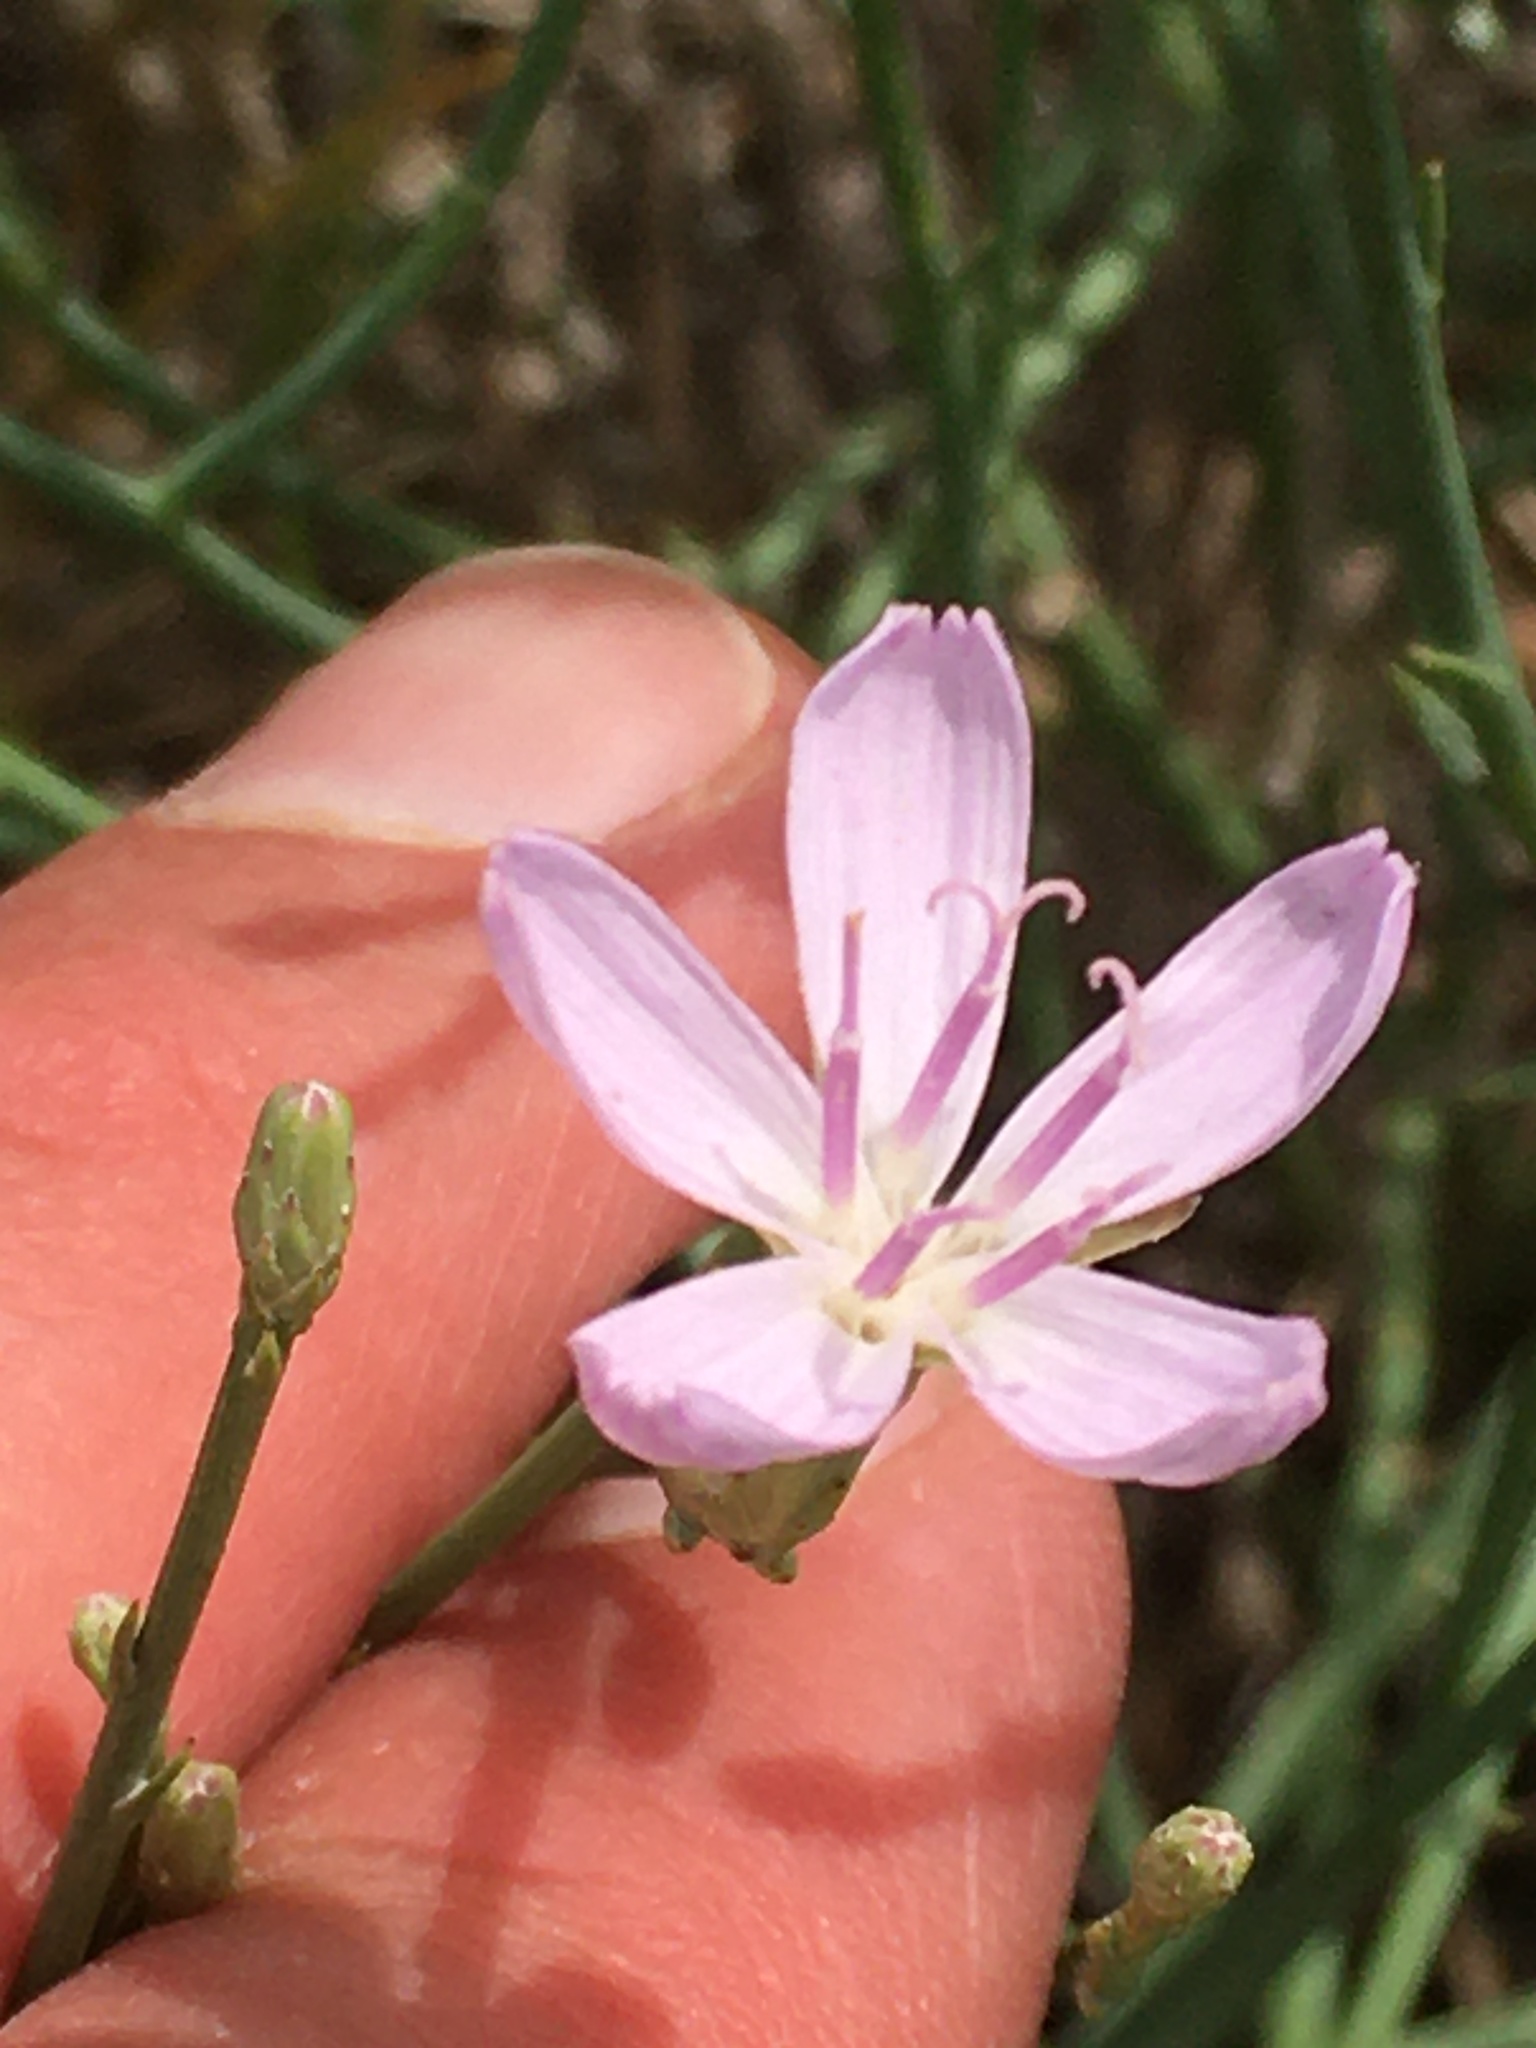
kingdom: Plantae
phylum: Tracheophyta
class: Magnoliopsida
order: Asterales
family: Asteraceae
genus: Lygodesmia
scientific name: Lygodesmia juncea
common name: Common skeletonweed
